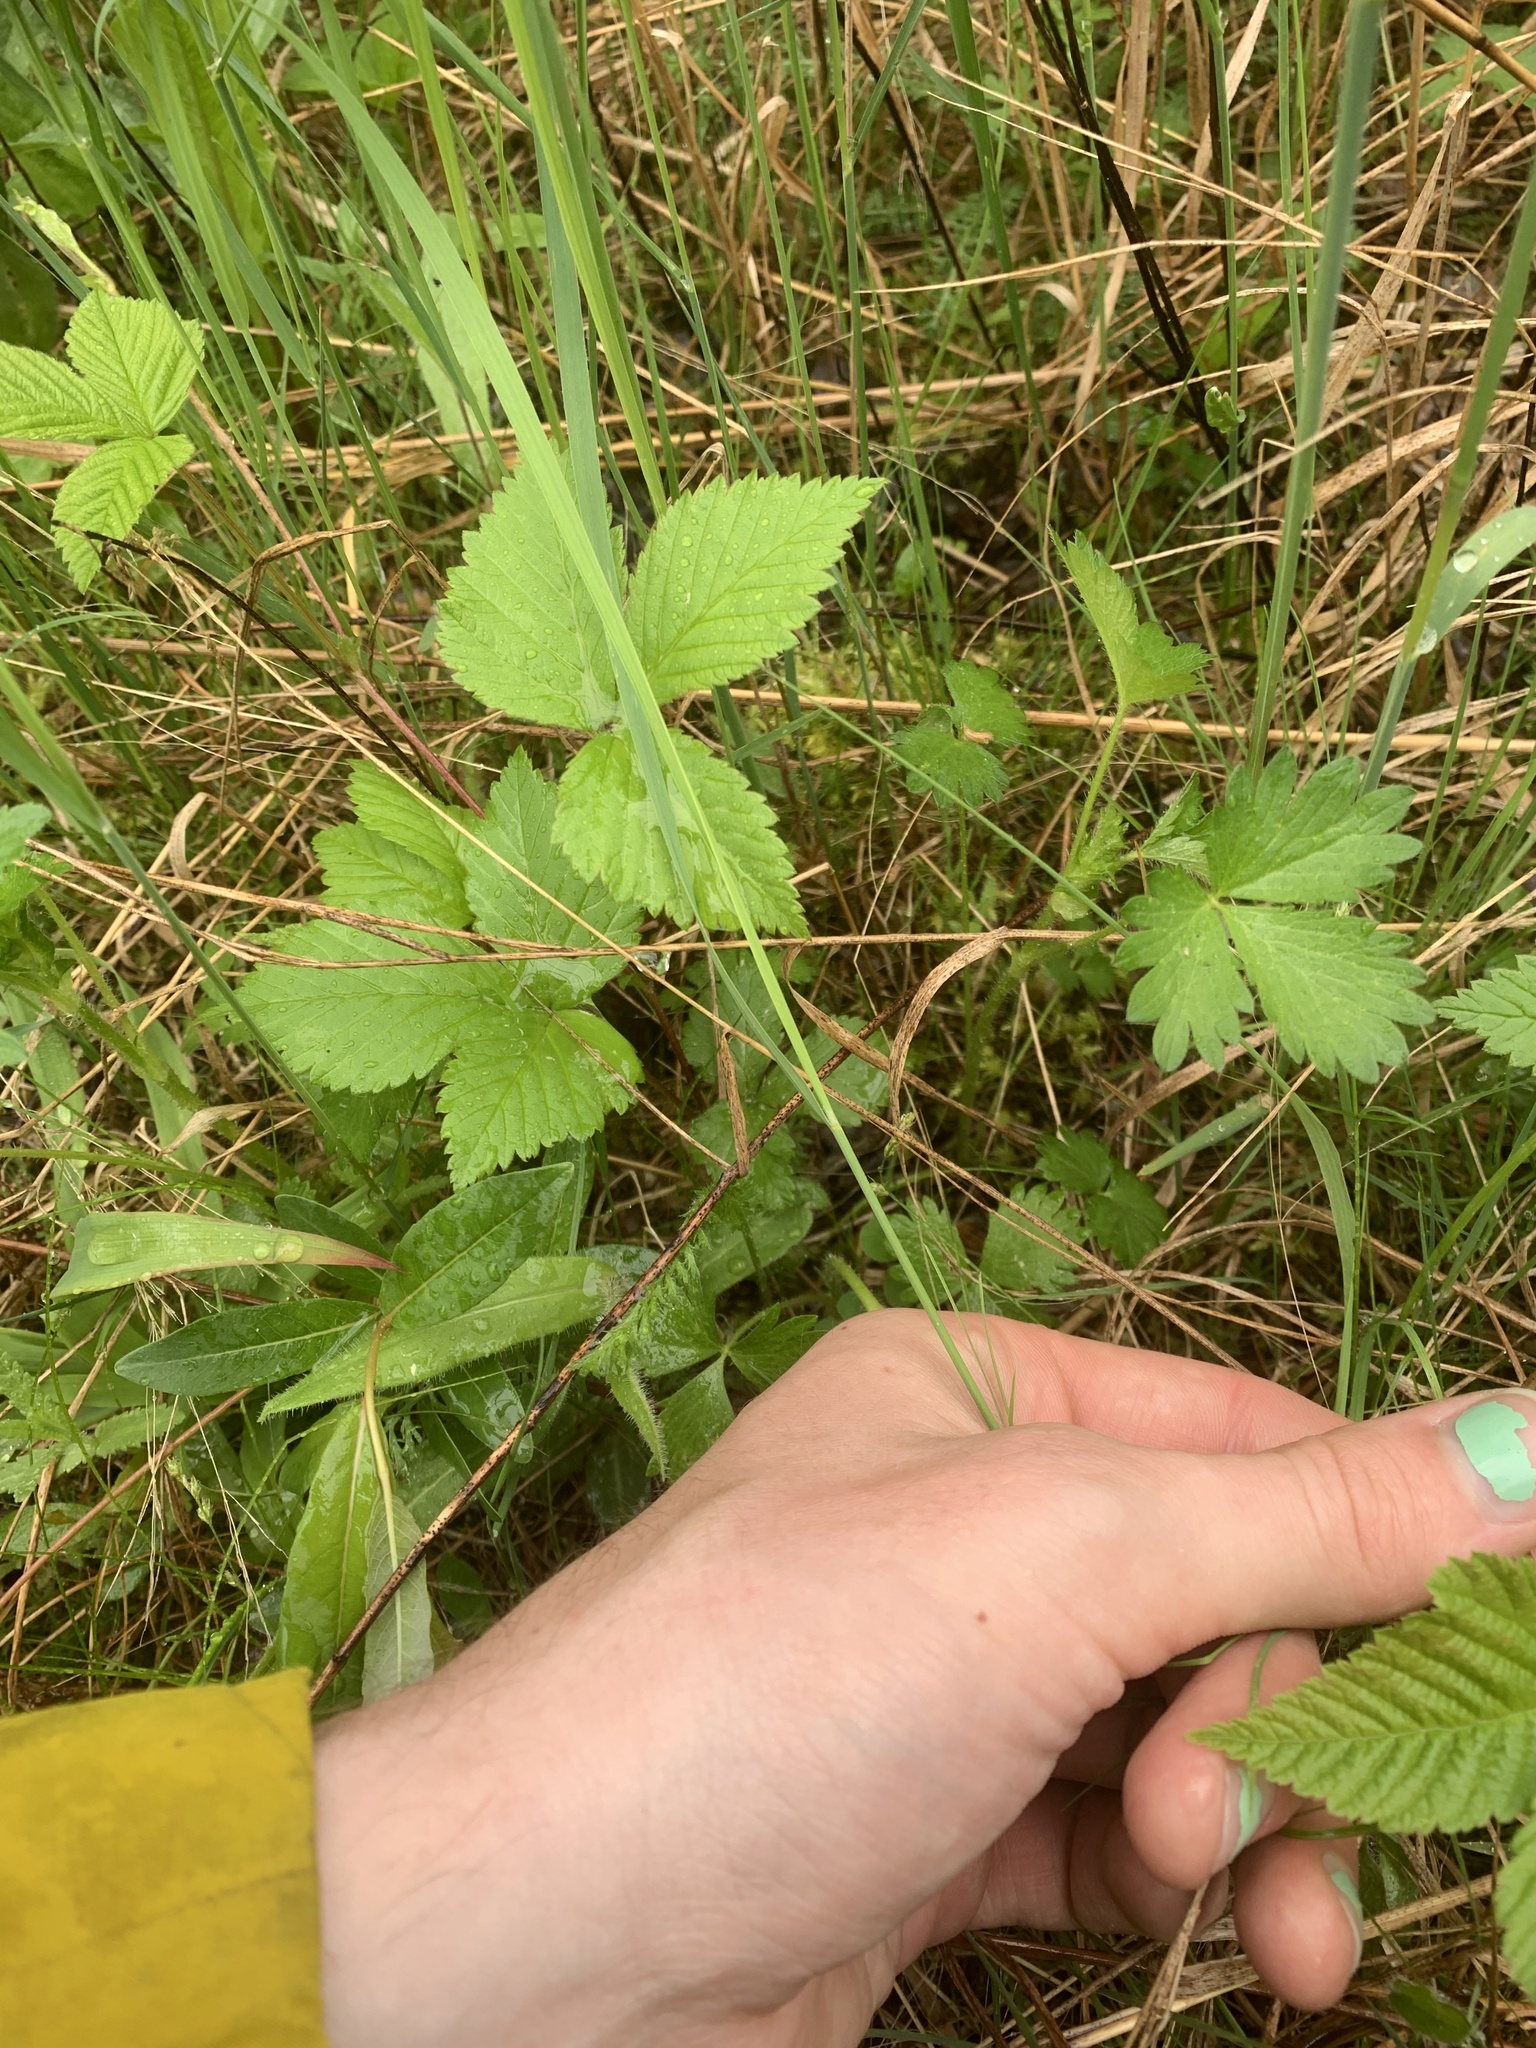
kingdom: Plantae
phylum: Tracheophyta
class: Magnoliopsida
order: Rosales
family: Rosaceae
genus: Rubus
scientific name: Rubus pubescens
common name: Dwarf raspberry
